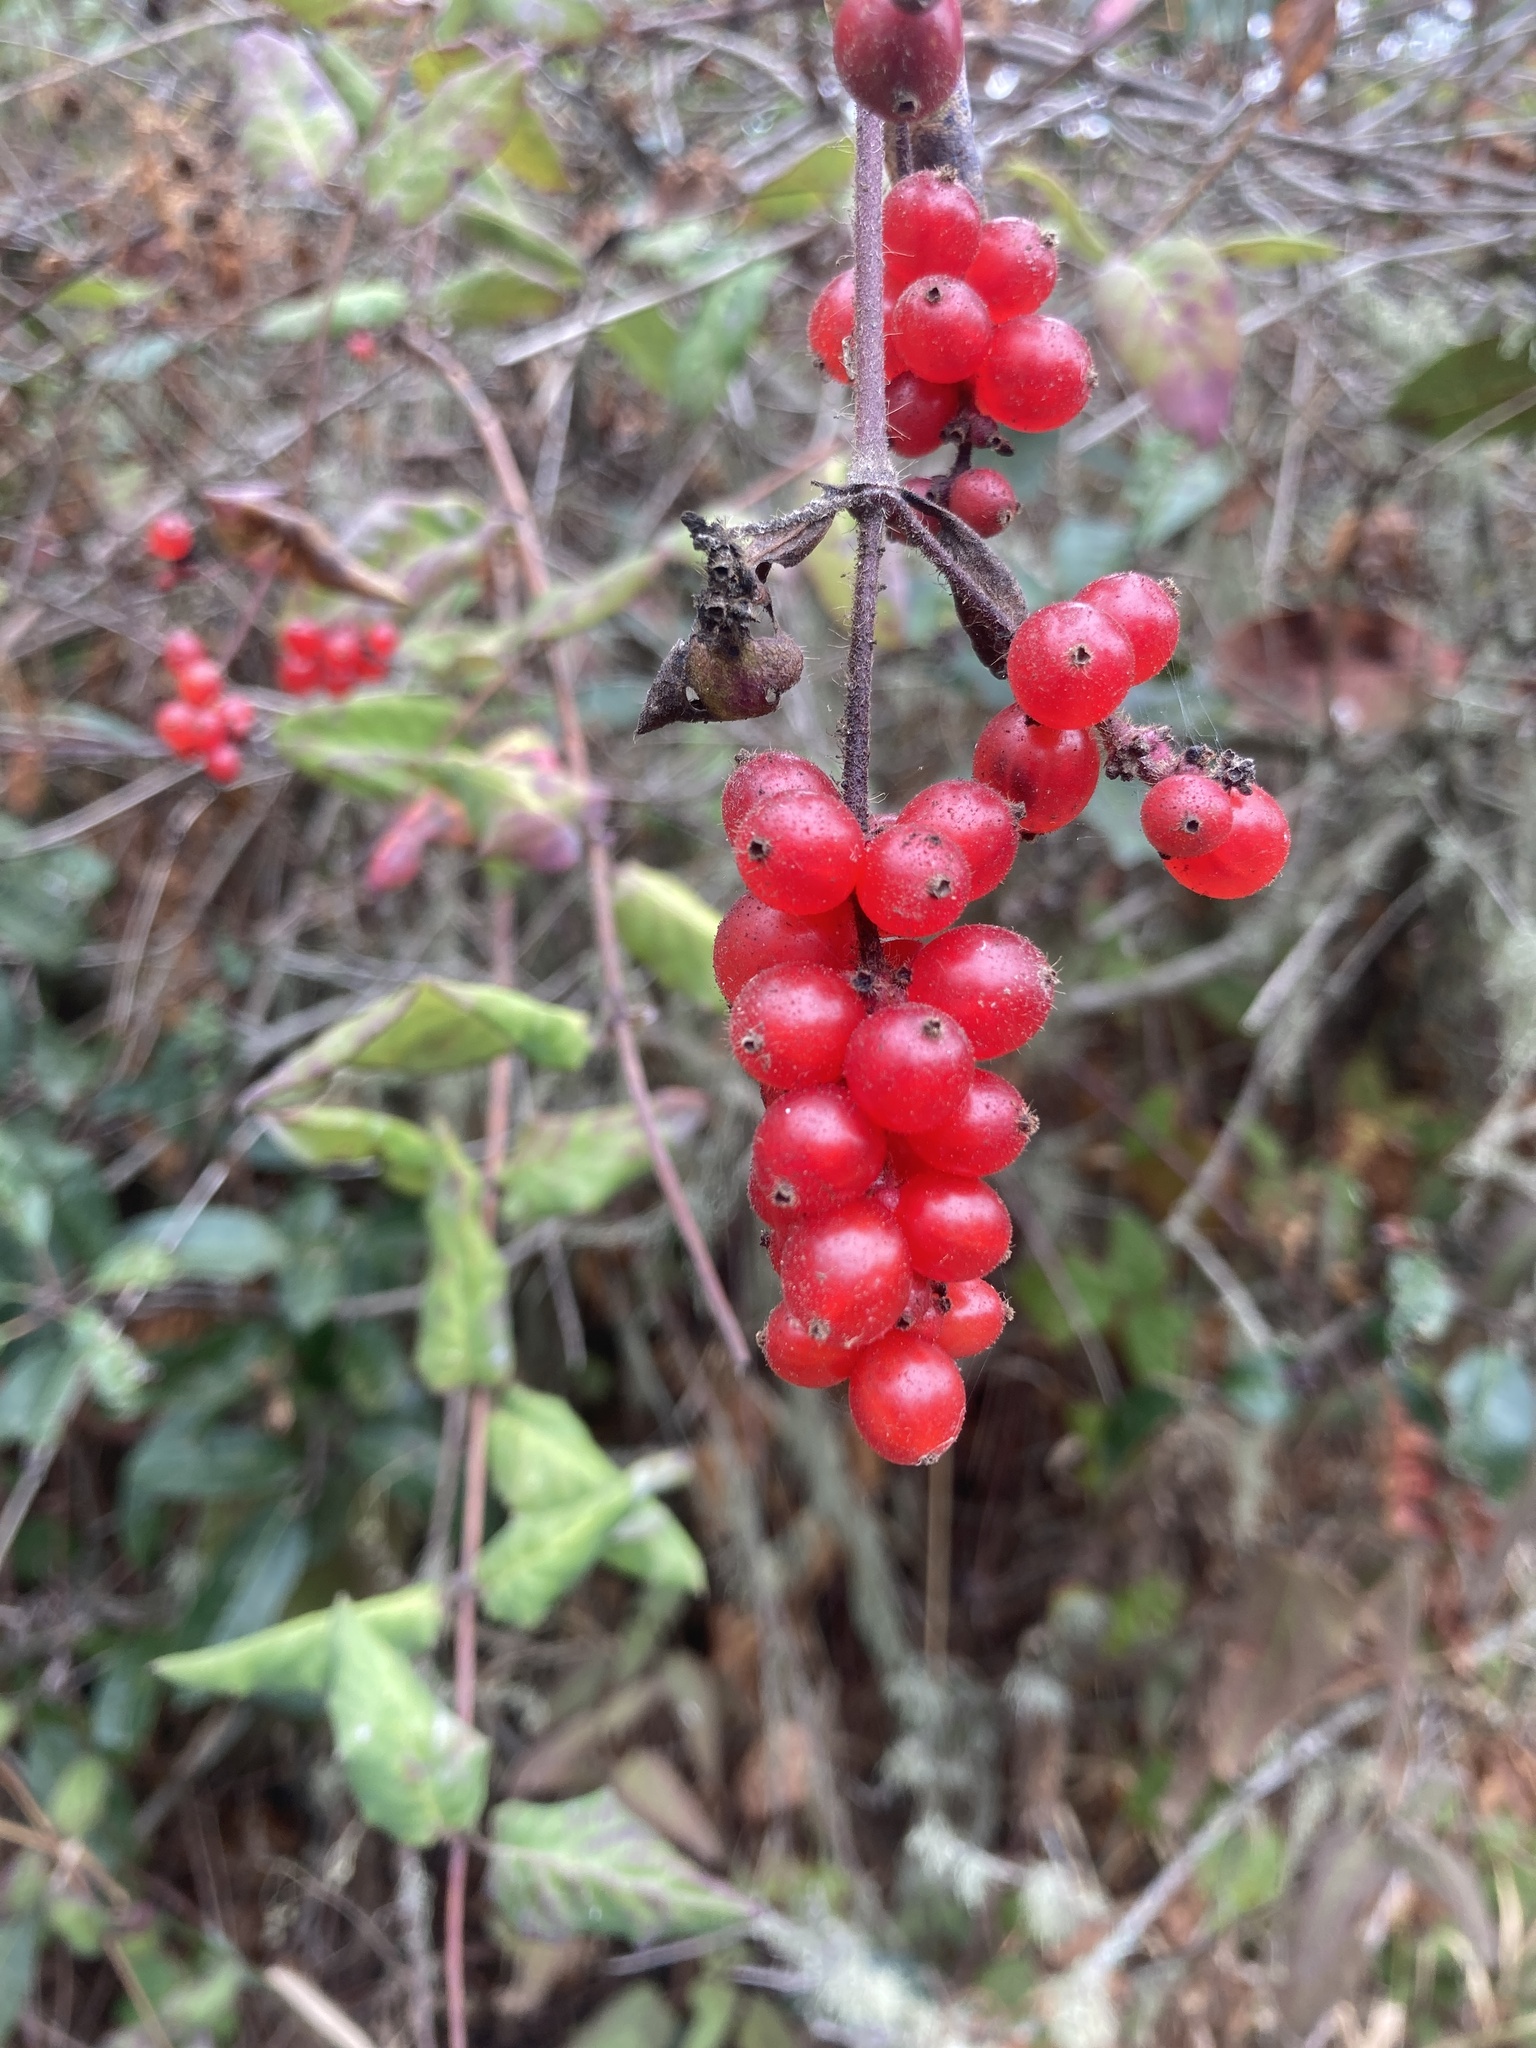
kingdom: Plantae
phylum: Tracheophyta
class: Magnoliopsida
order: Dipsacales
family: Caprifoliaceae
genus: Lonicera
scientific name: Lonicera hispidula
